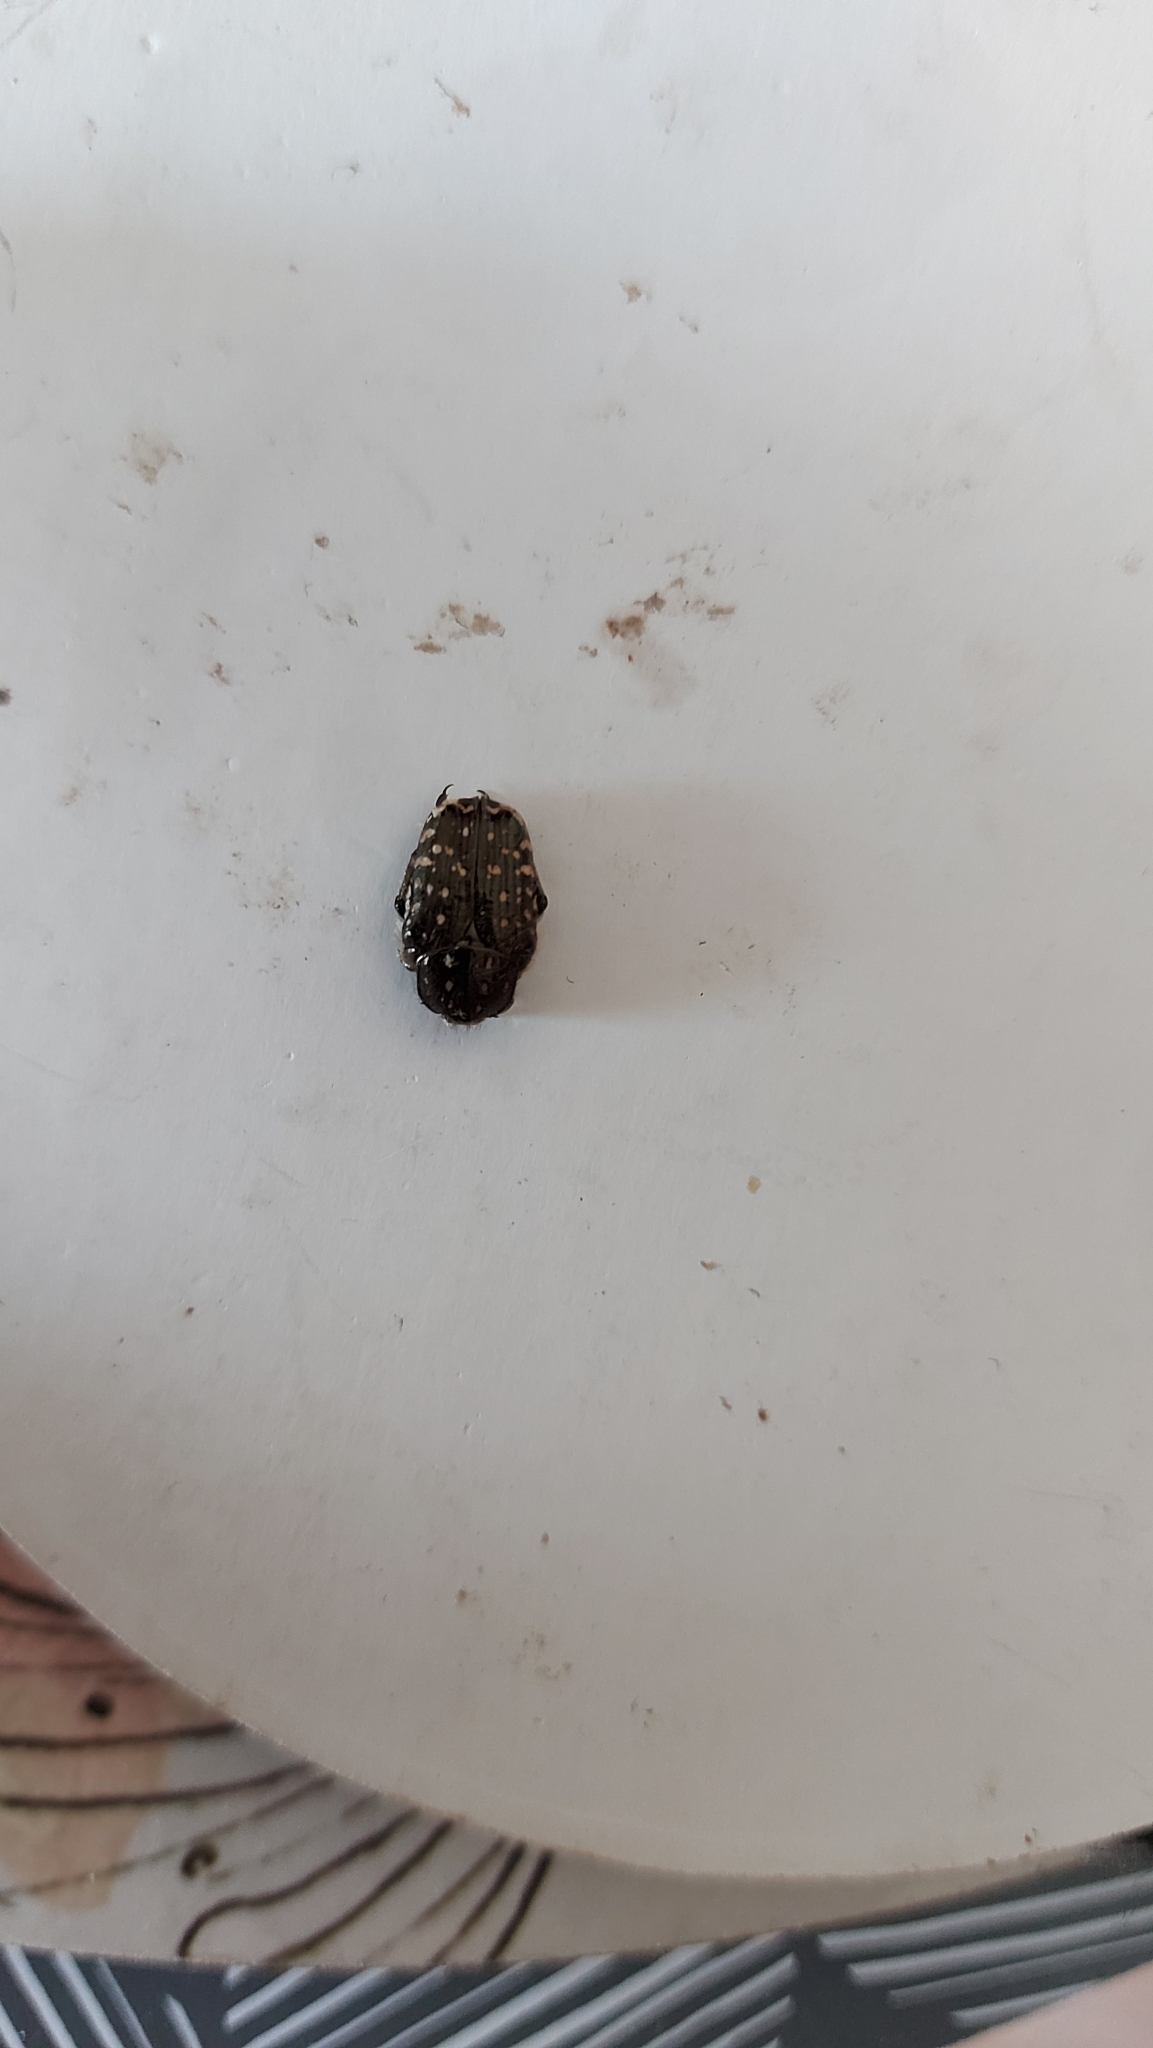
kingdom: Animalia
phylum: Arthropoda
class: Insecta
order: Coleoptera
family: Scarabaeidae
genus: Oxythyrea
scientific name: Oxythyrea funesta
